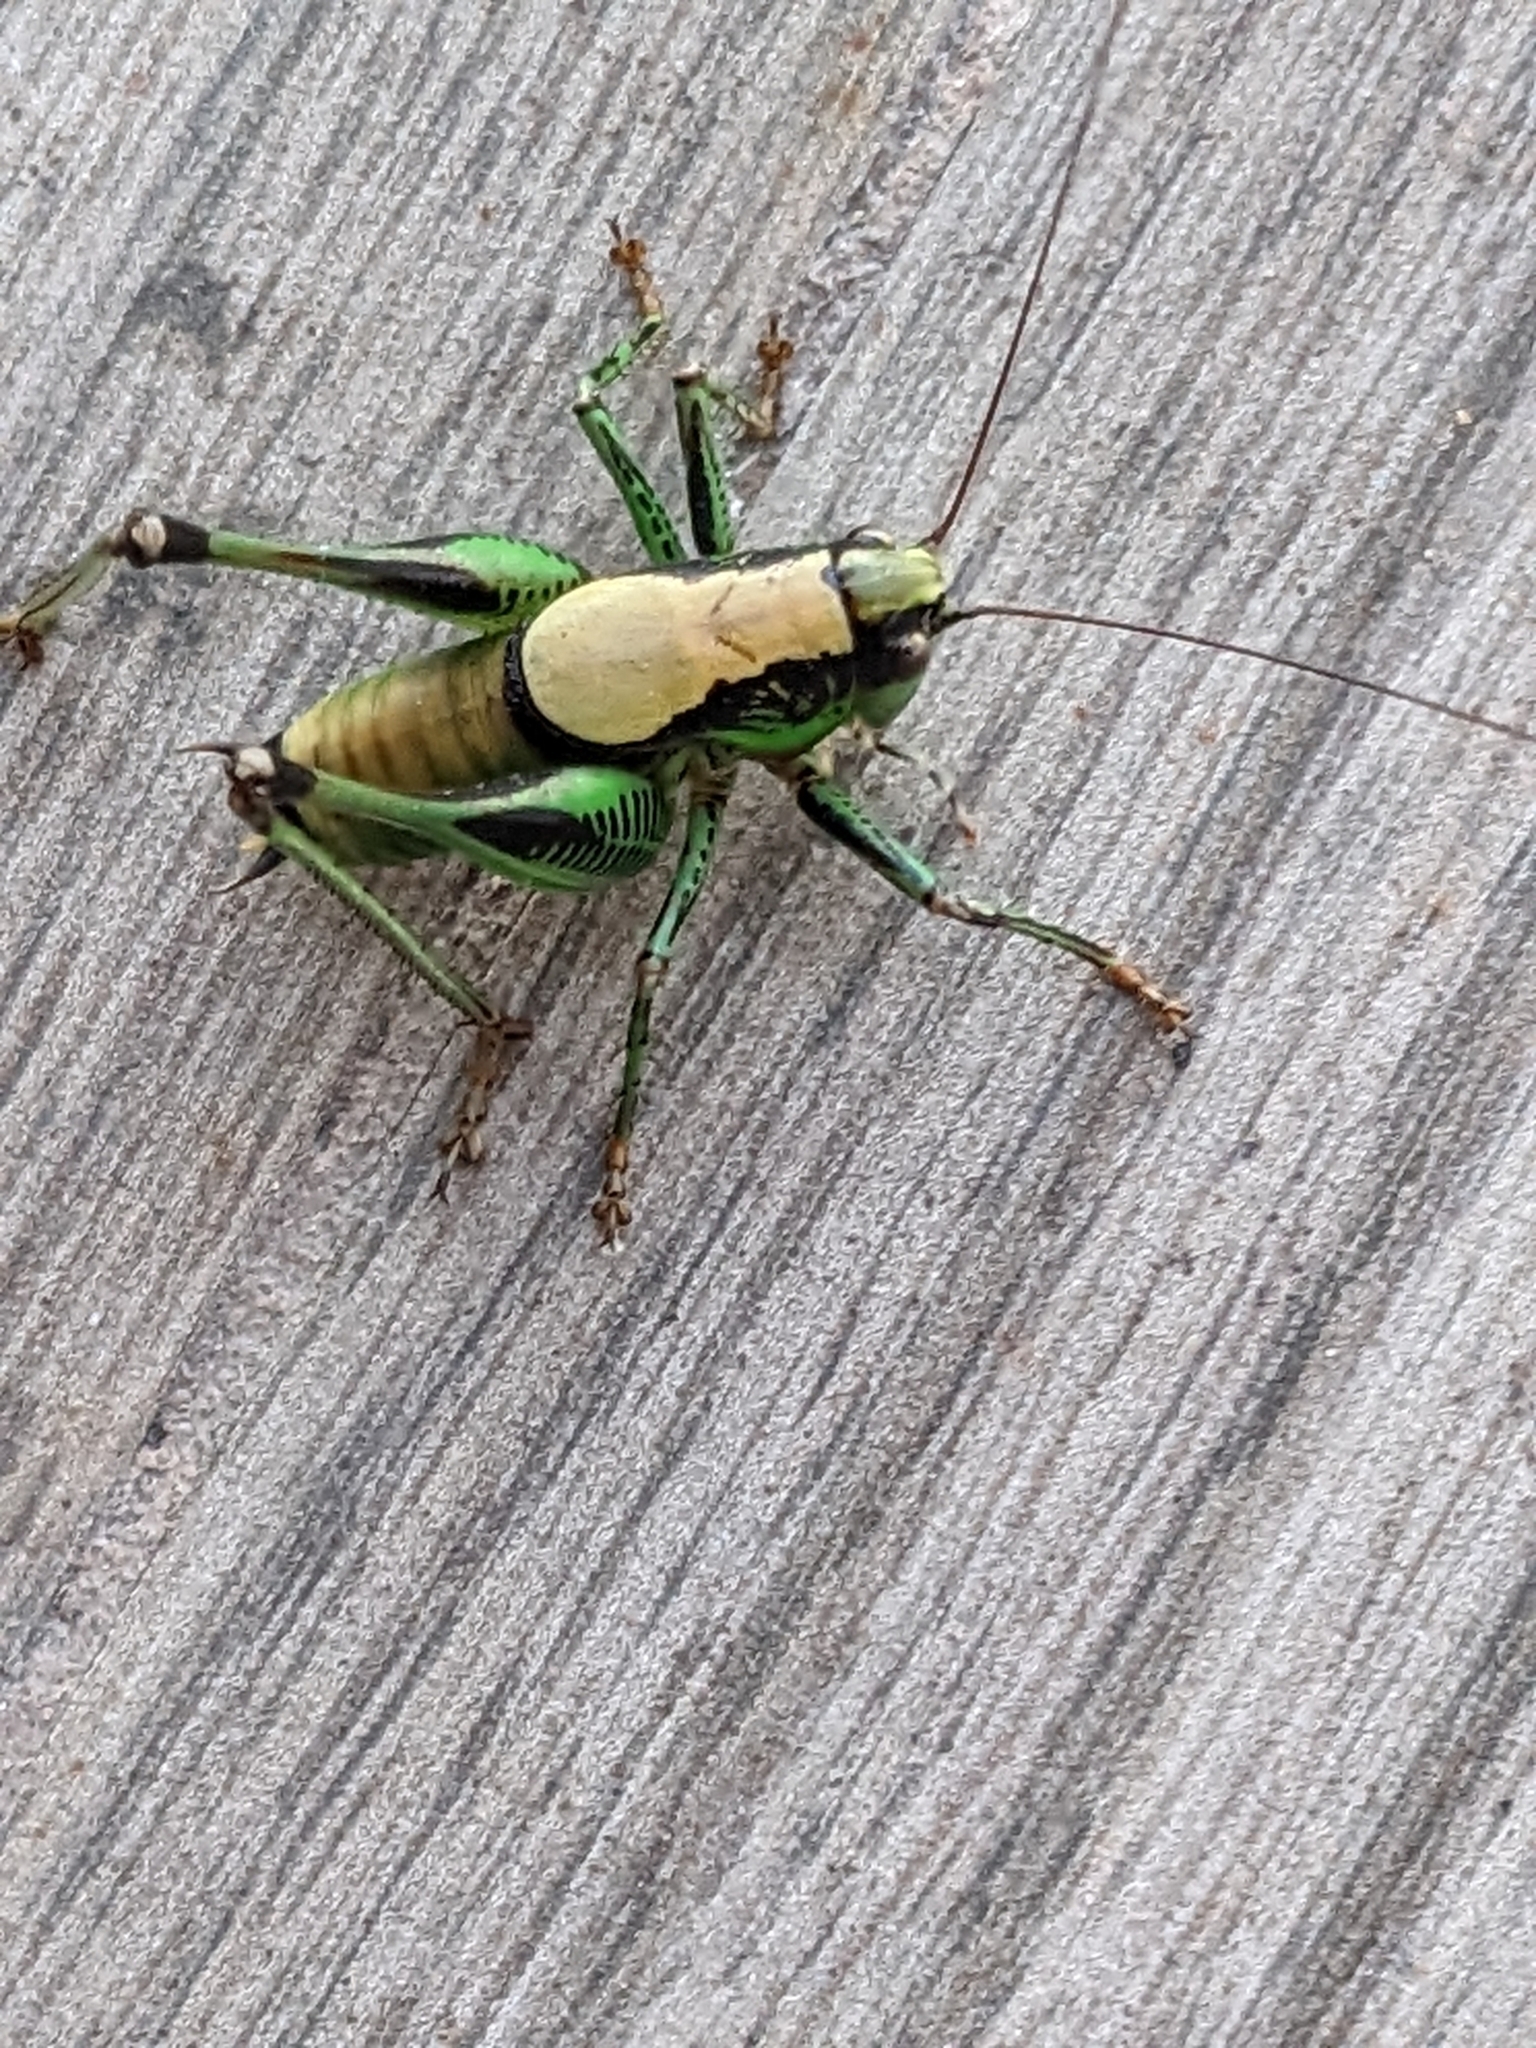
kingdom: Animalia
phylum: Arthropoda
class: Insecta
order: Orthoptera
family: Tettigoniidae
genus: Eupholidoptera
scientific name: Eupholidoptera garganica
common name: Gargano marbled bush-cricket
